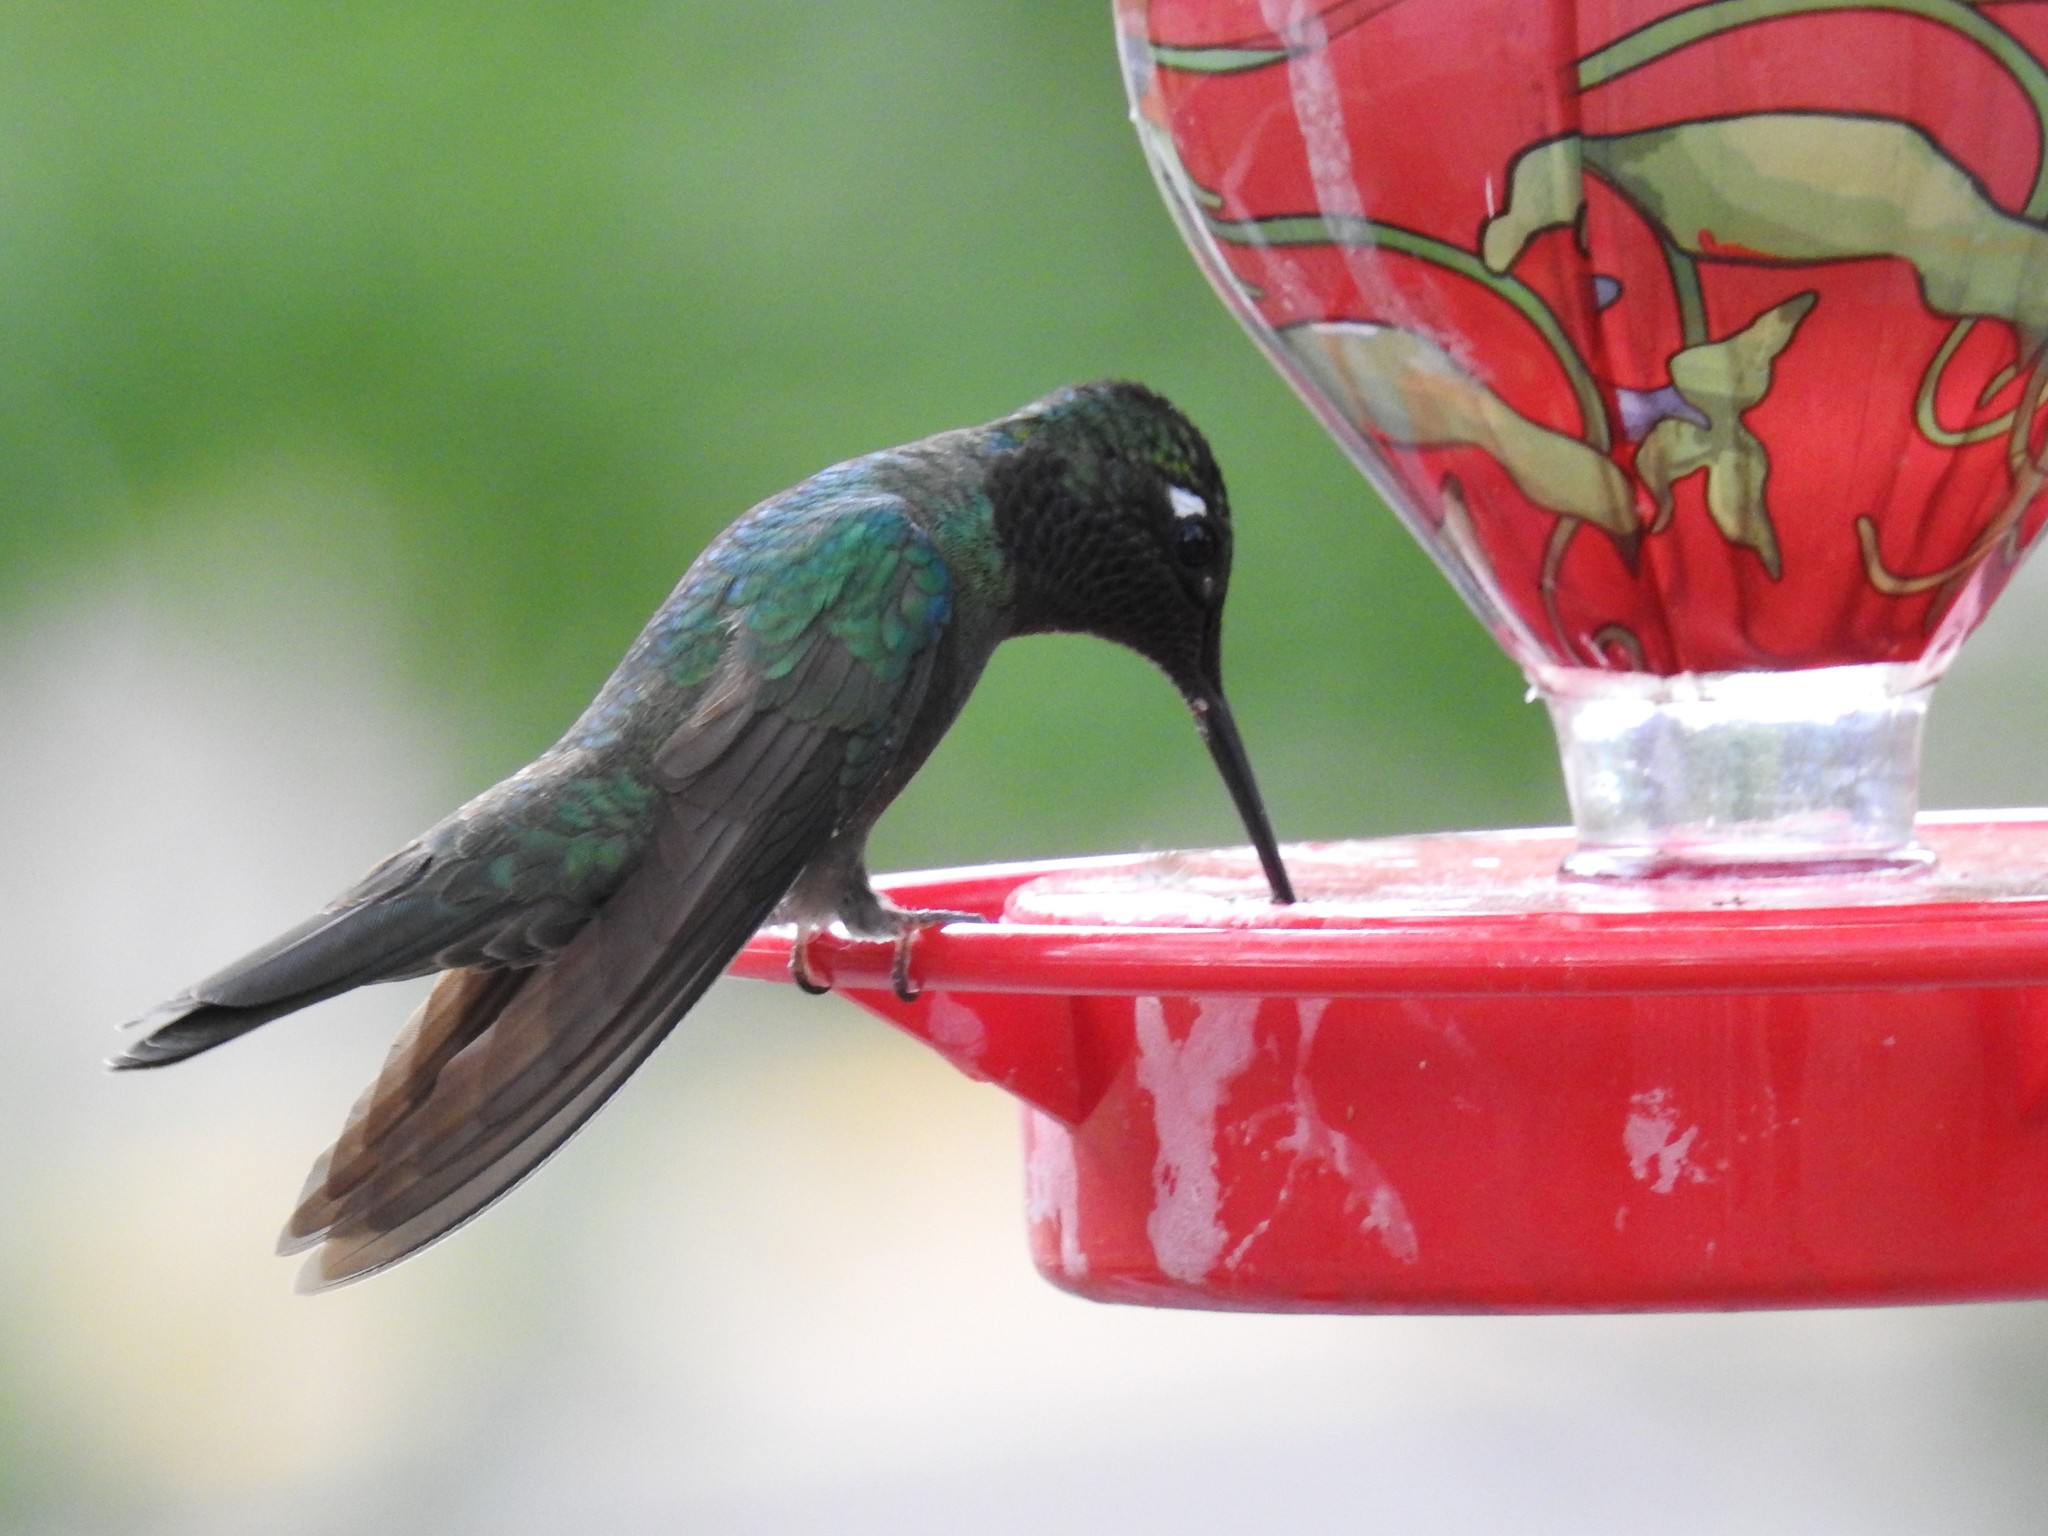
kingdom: Animalia
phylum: Chordata
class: Aves
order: Apodiformes
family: Trochilidae
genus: Eugenes
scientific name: Eugenes fulgens
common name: Magnificent hummingbird
